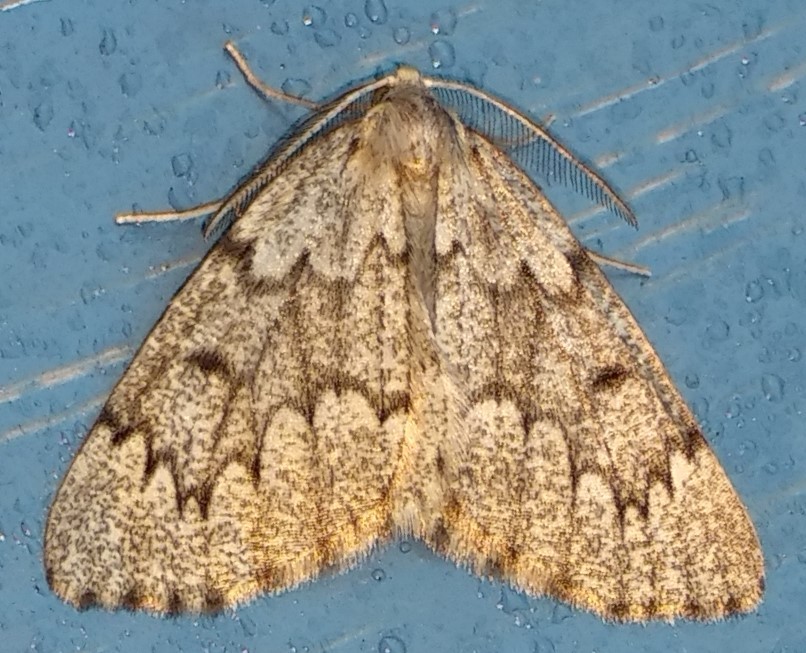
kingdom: Animalia
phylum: Arthropoda
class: Insecta
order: Lepidoptera
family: Geometridae
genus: Nepytia
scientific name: Nepytia canosaria
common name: False hemlock looper
